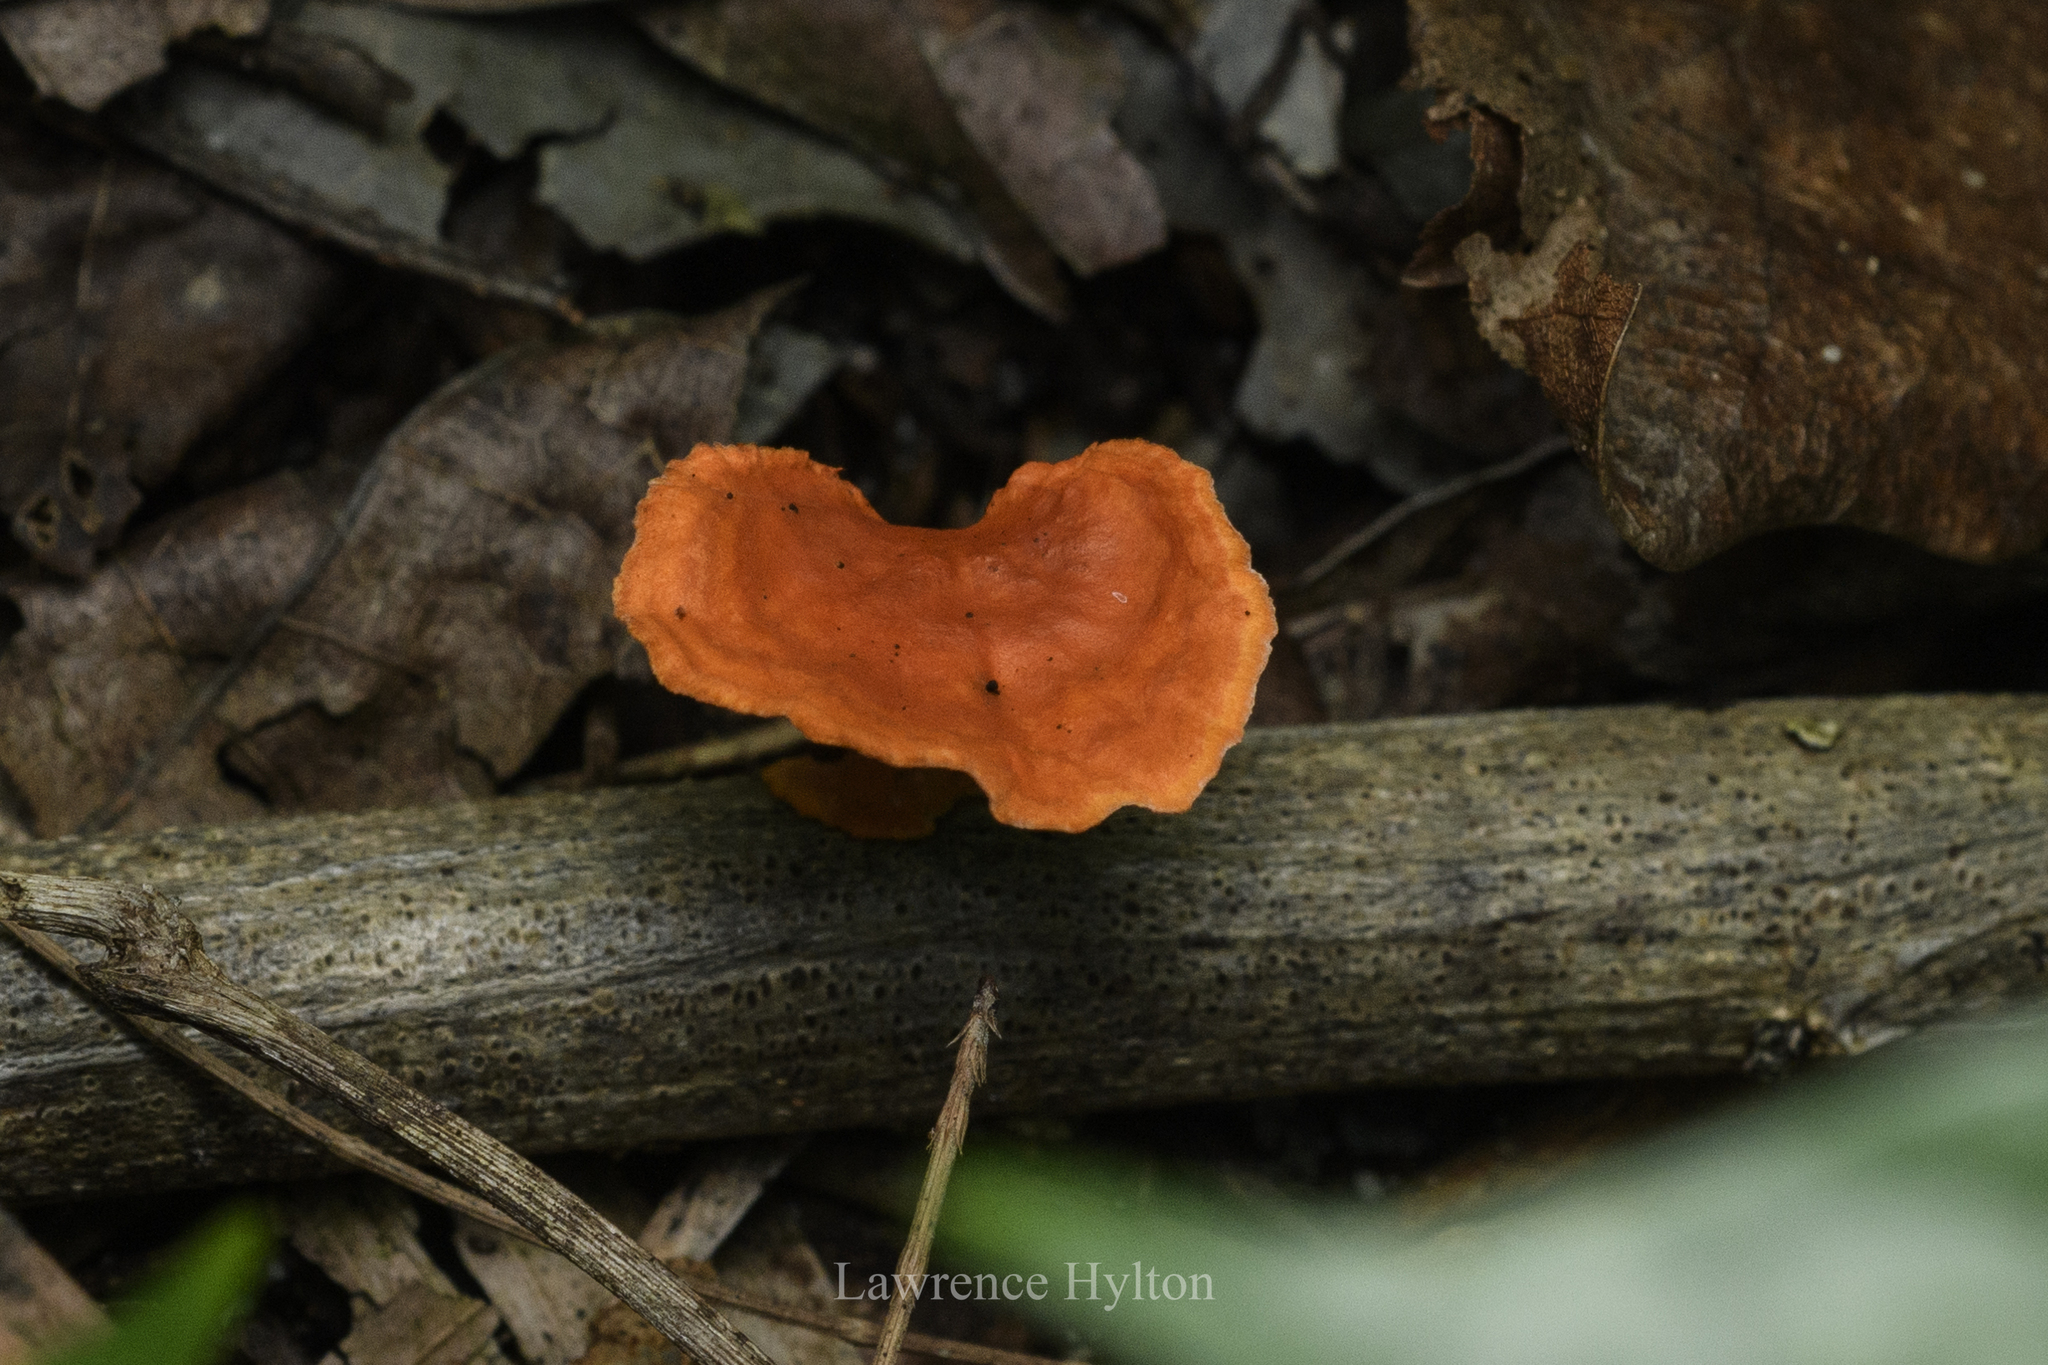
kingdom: Fungi
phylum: Basidiomycota
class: Agaricomycetes
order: Polyporales
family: Polyporaceae
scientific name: Polyporaceae
